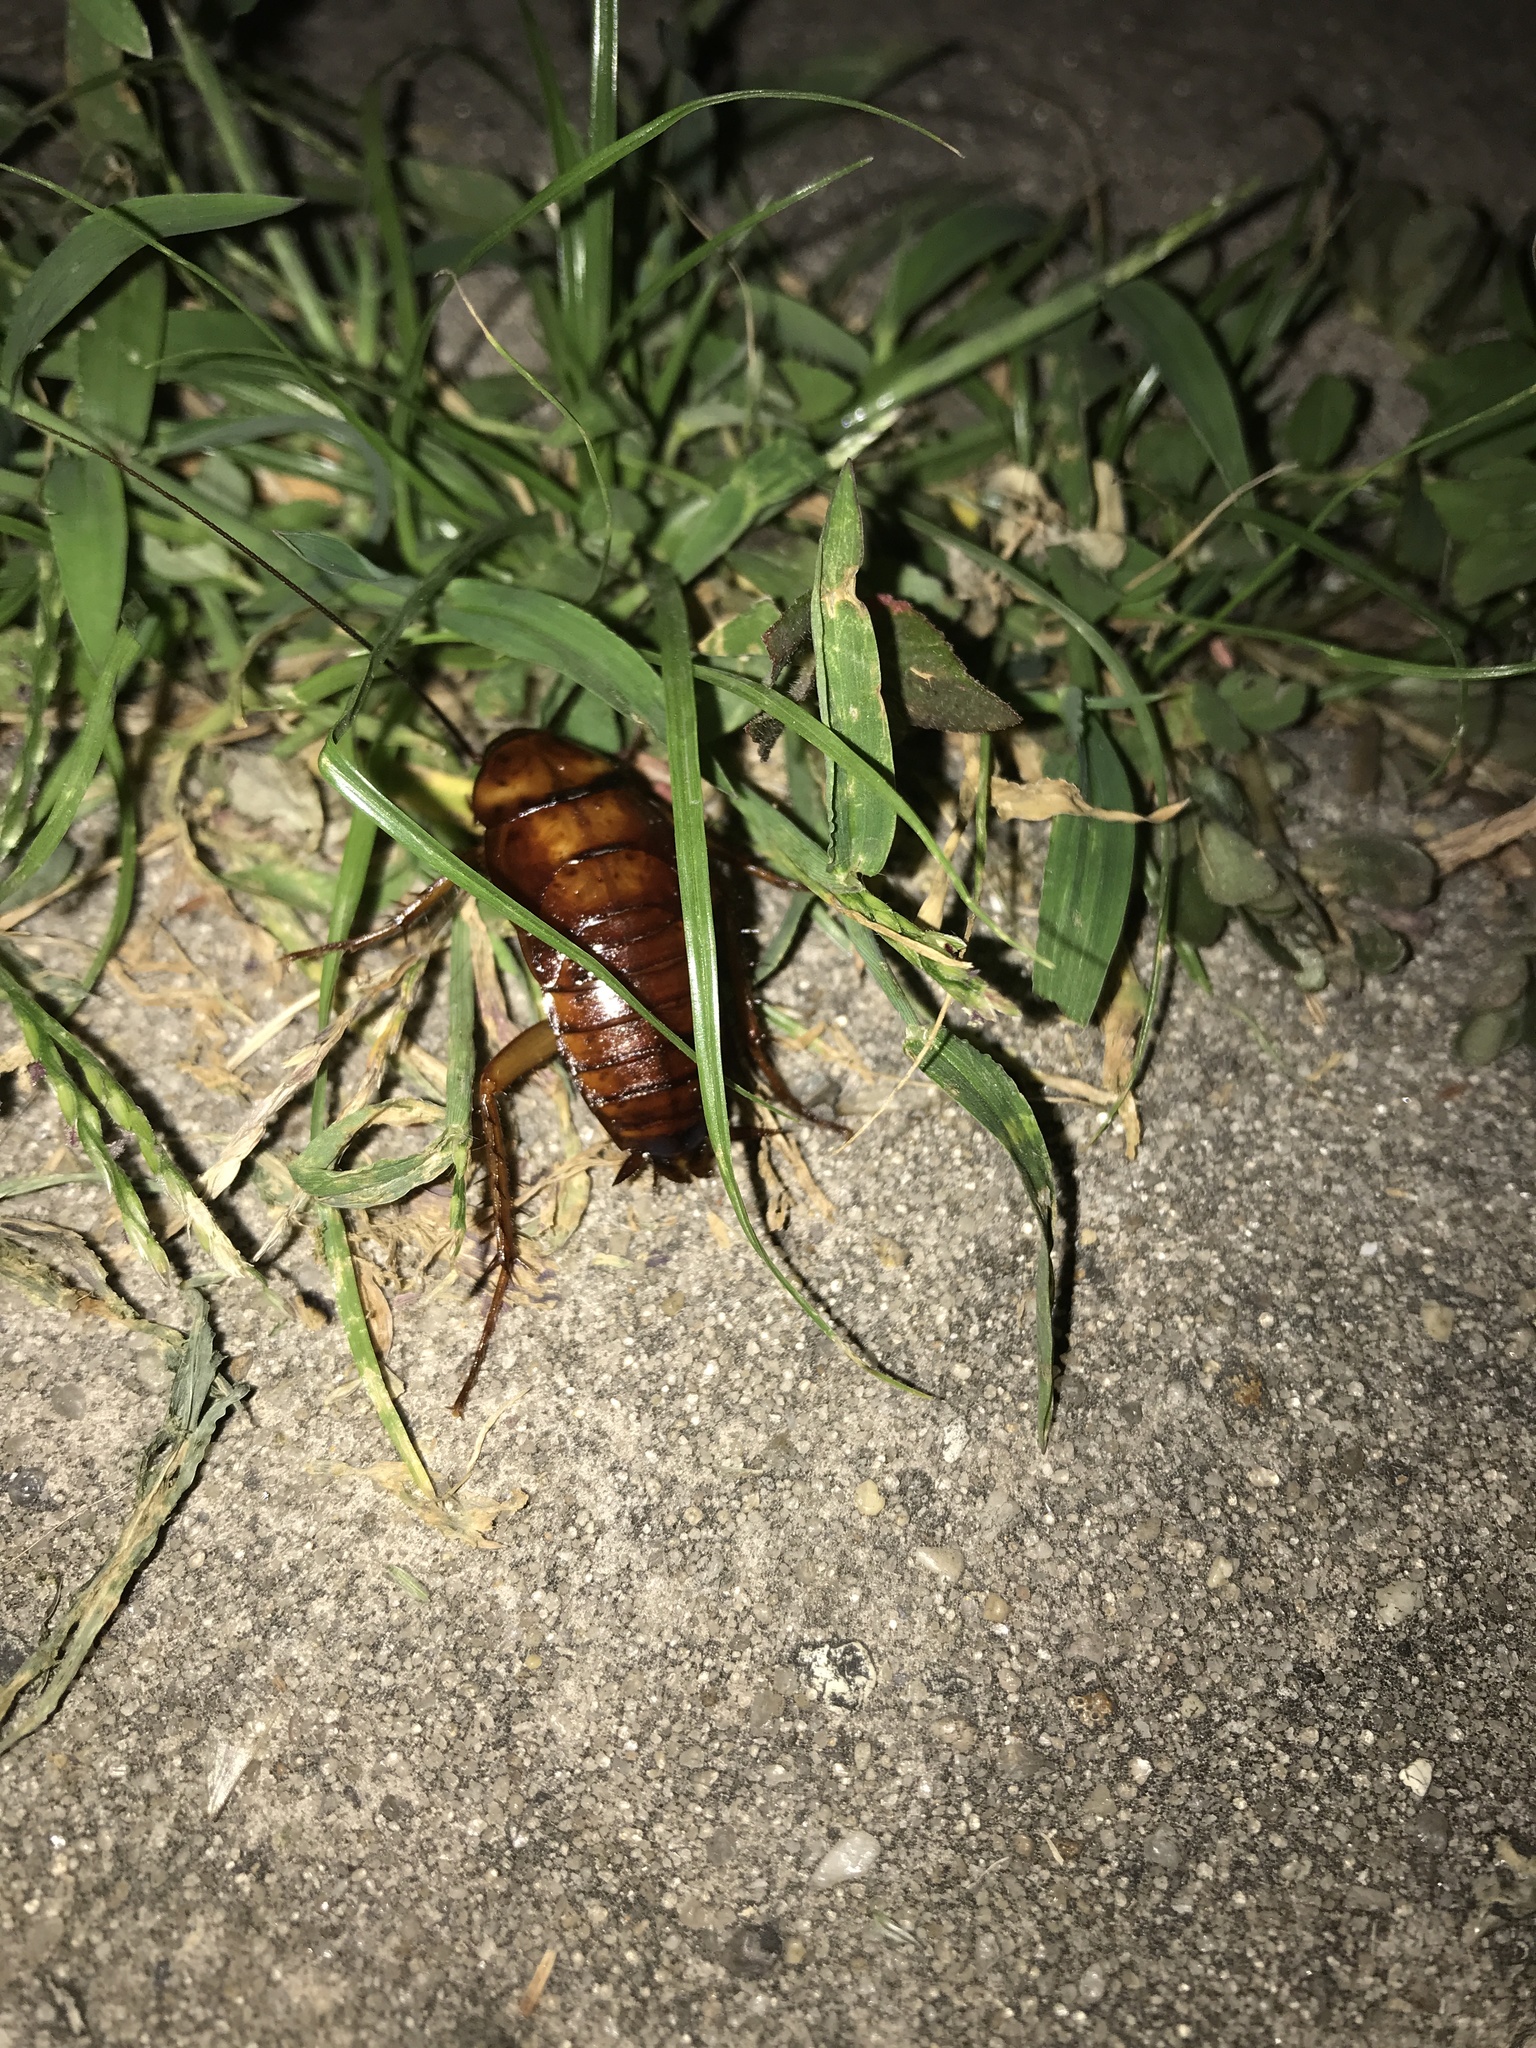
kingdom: Animalia
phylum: Arthropoda
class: Insecta
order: Blattodea
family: Blattidae
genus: Periplaneta
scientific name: Periplaneta americana
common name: American cockroach
